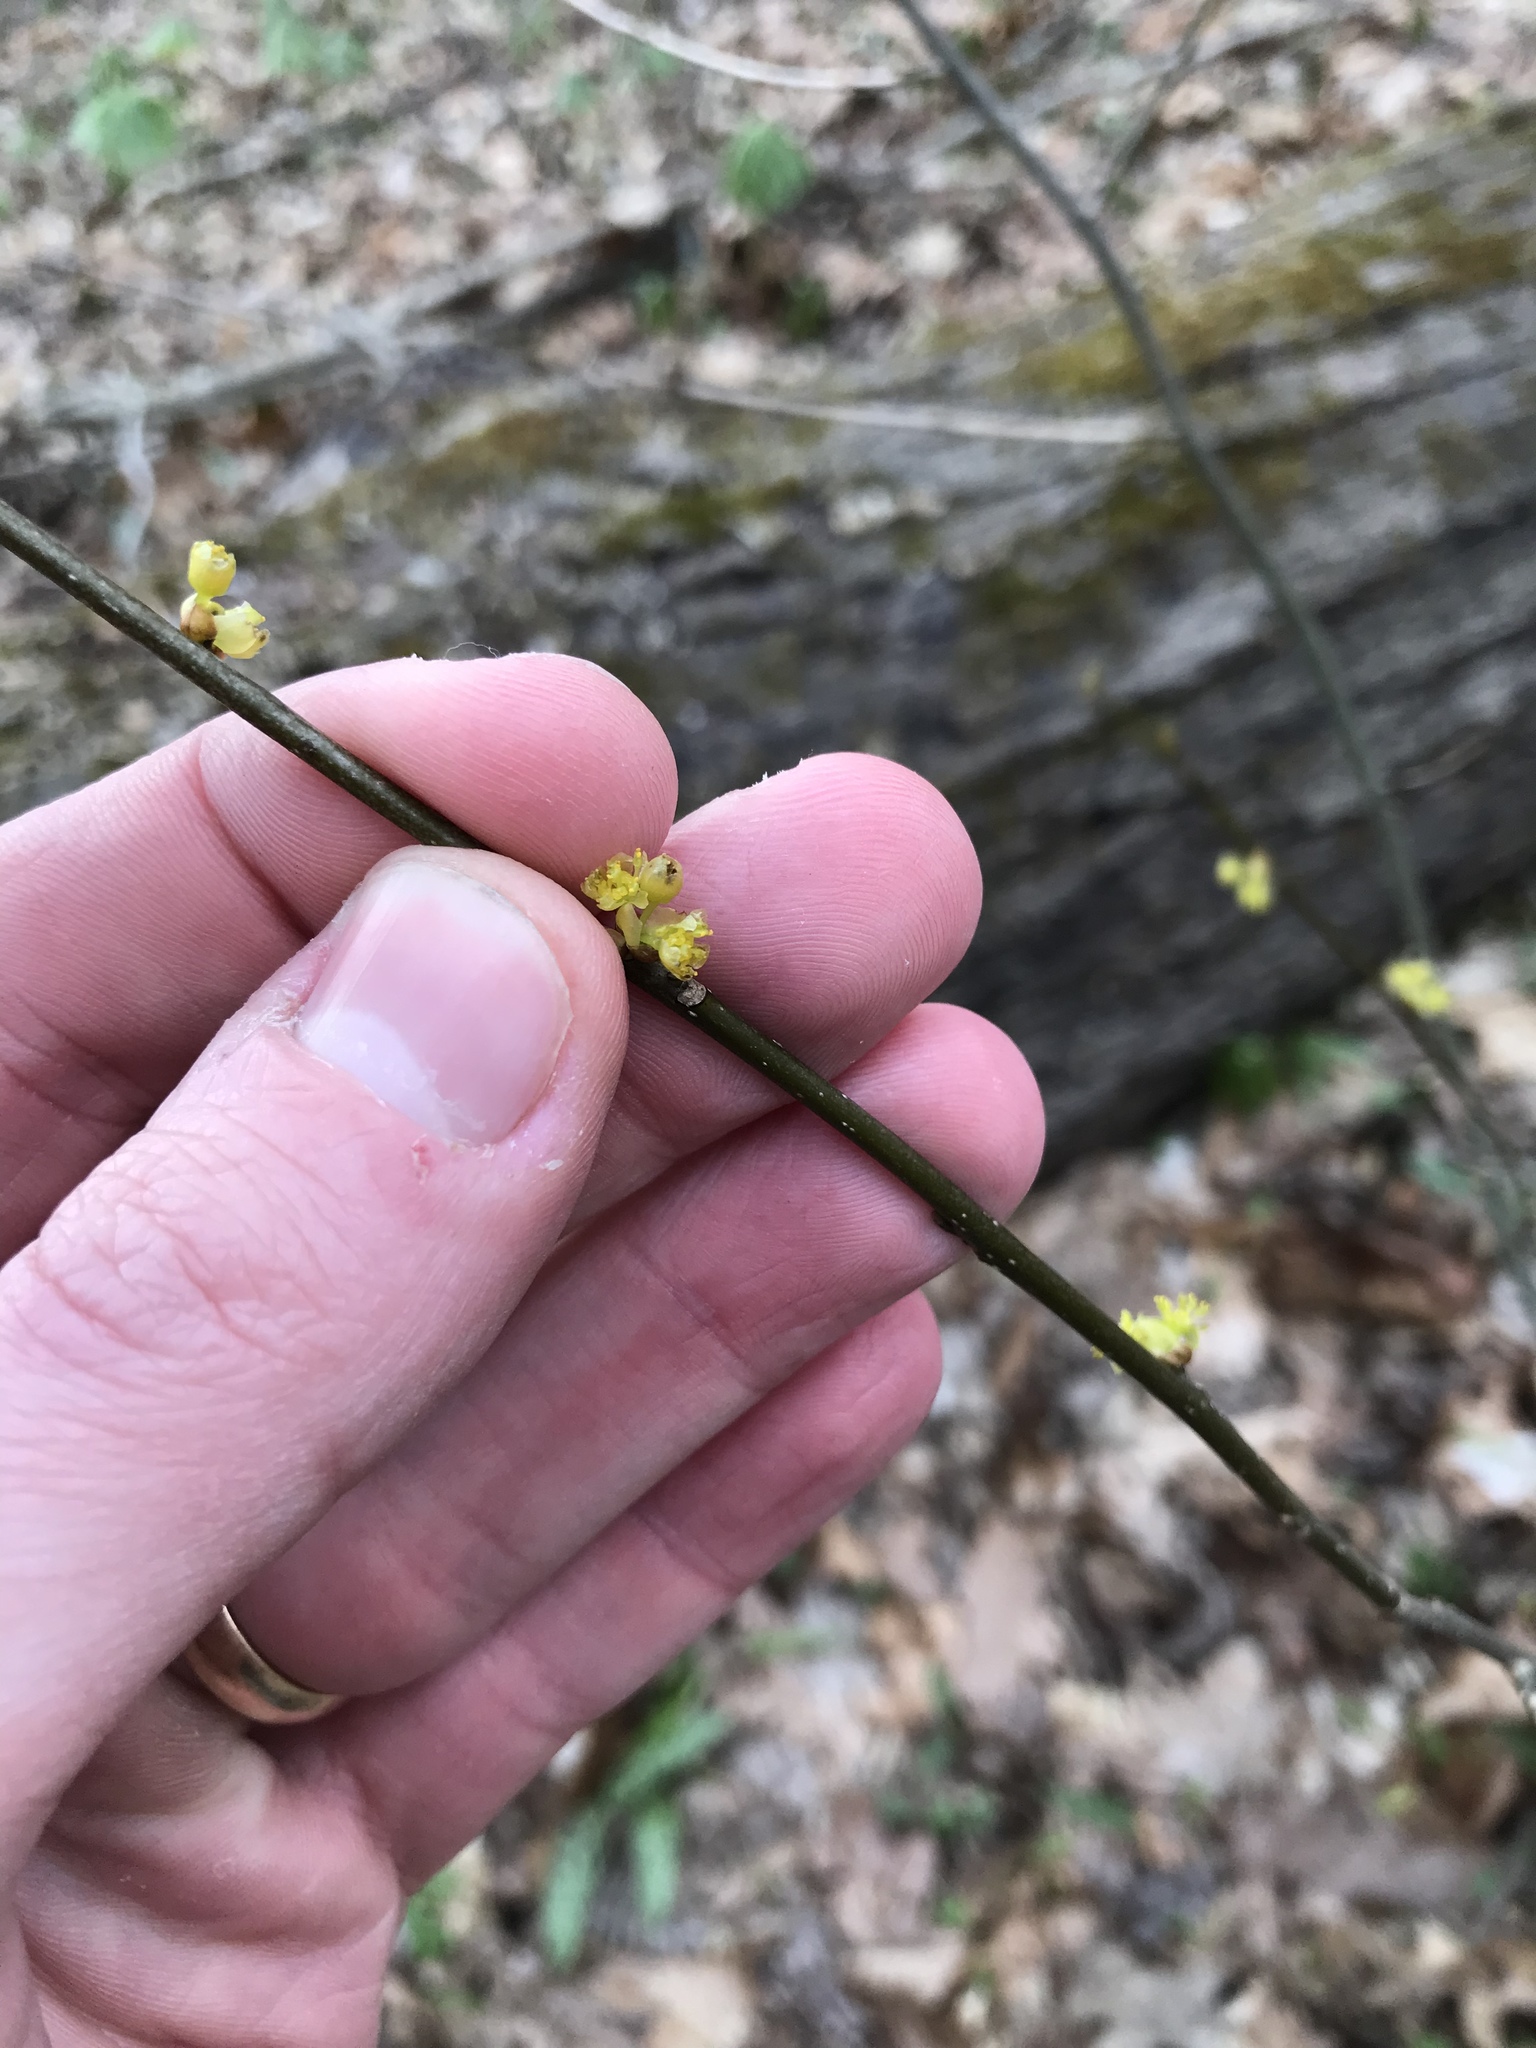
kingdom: Plantae
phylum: Tracheophyta
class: Magnoliopsida
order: Laurales
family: Lauraceae
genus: Lindera
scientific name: Lindera benzoin
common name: Spicebush
